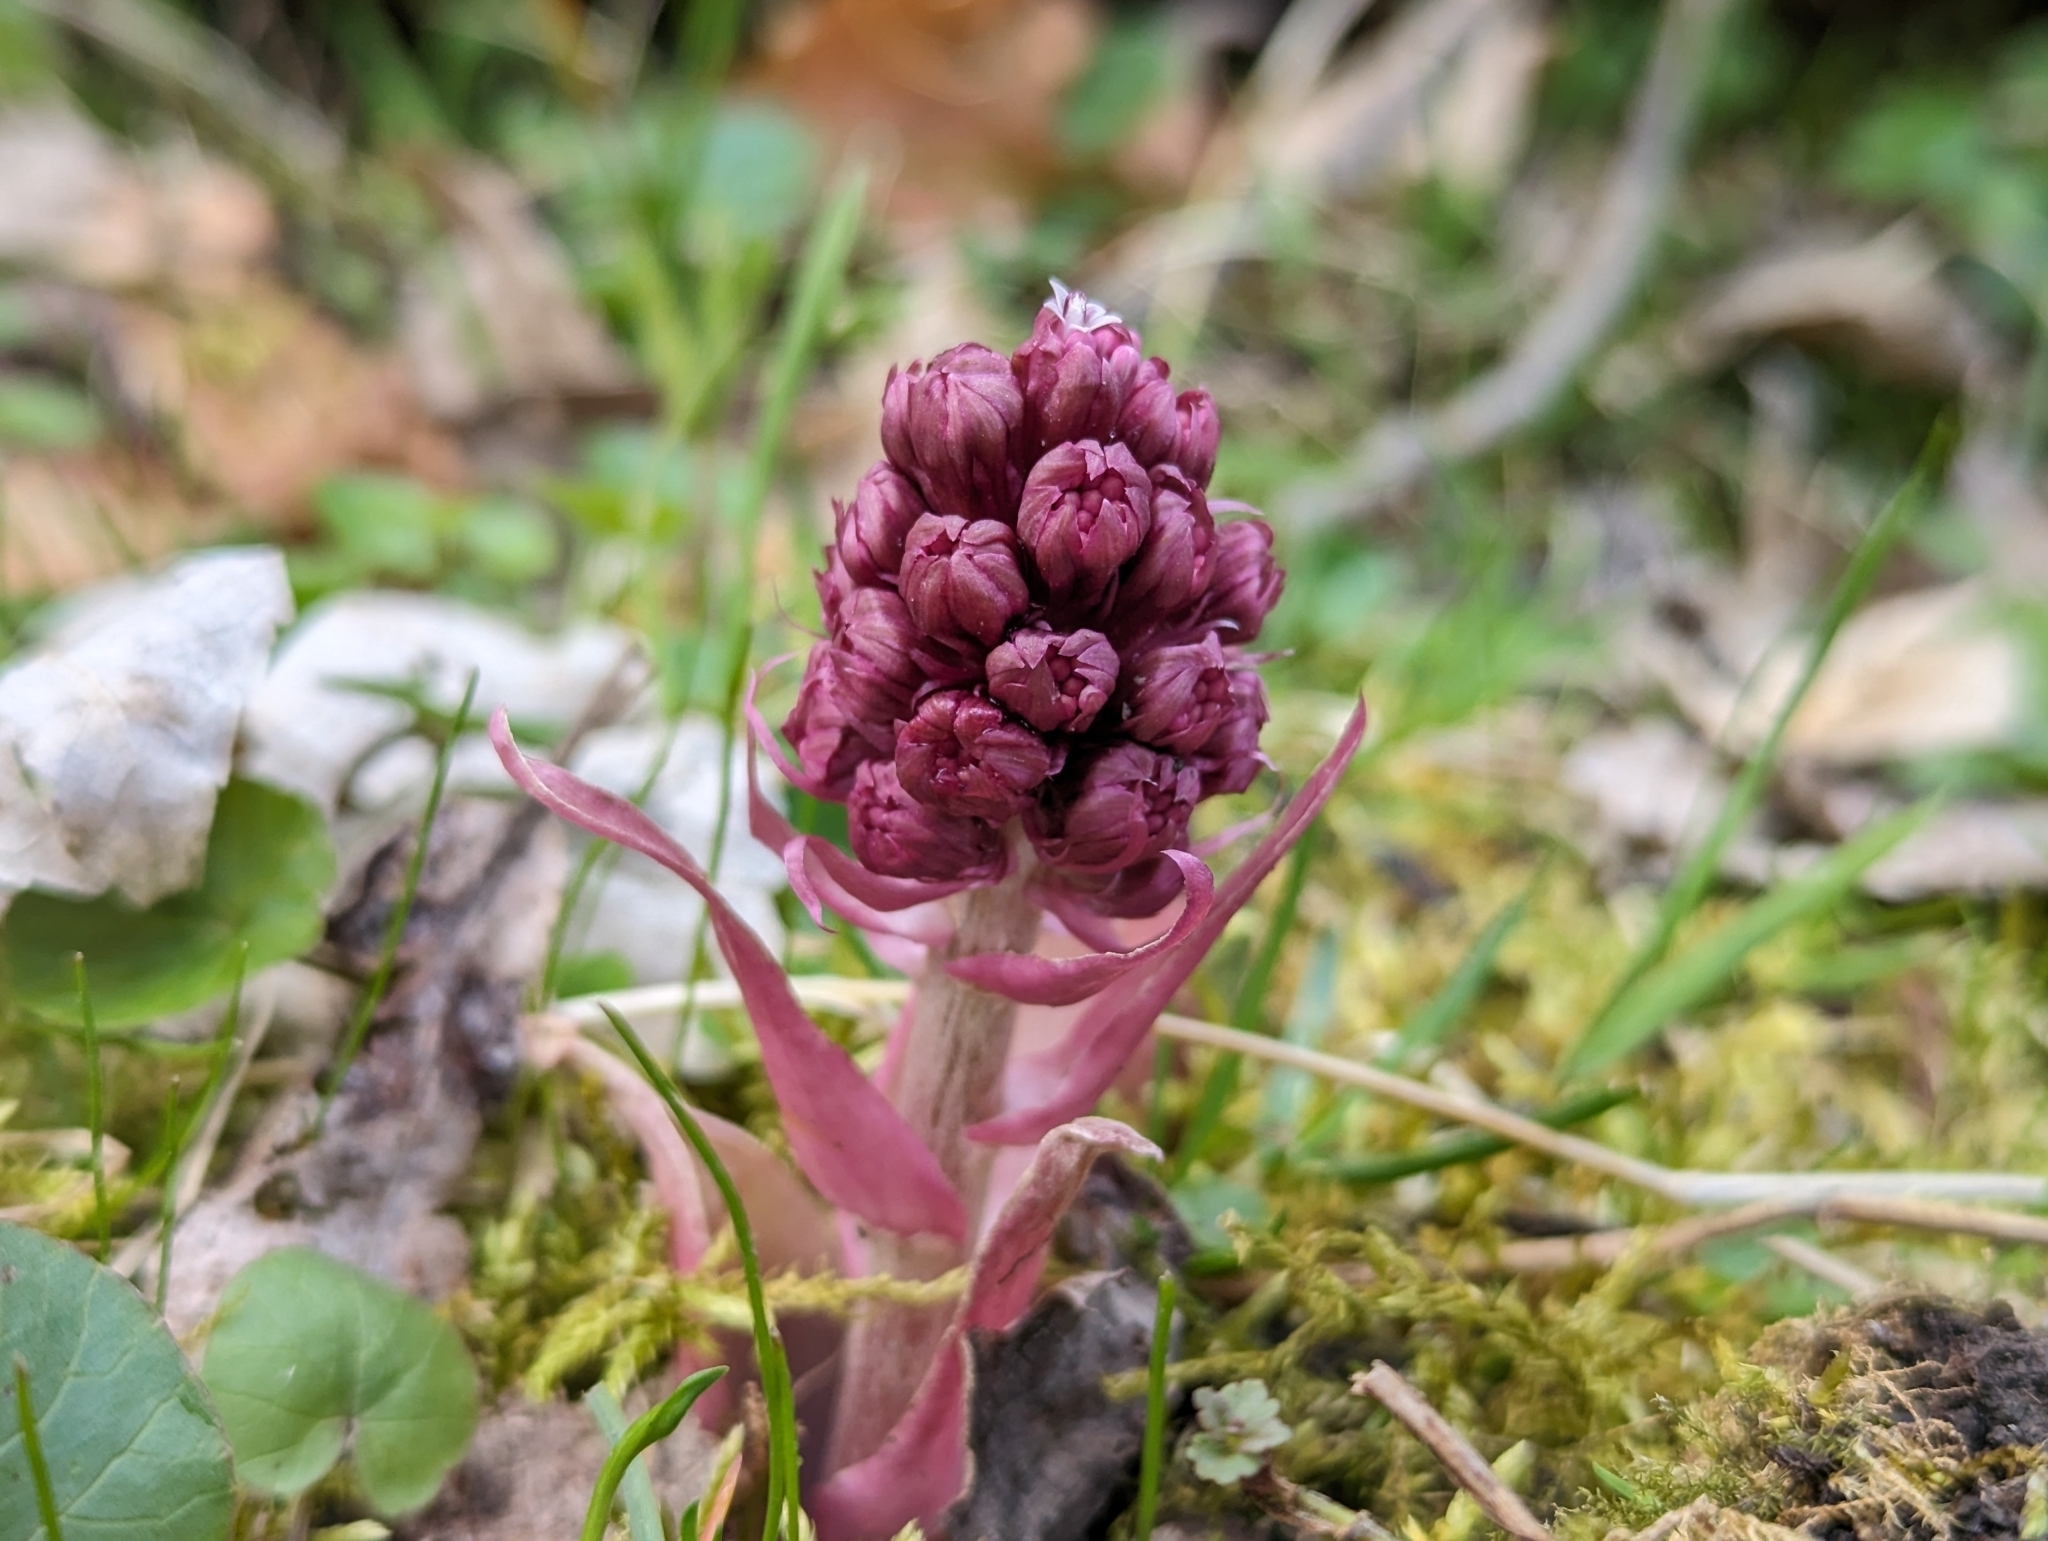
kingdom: Plantae
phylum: Tracheophyta
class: Magnoliopsida
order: Asterales
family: Asteraceae
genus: Petasites
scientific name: Petasites hybridus
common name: Butterbur
